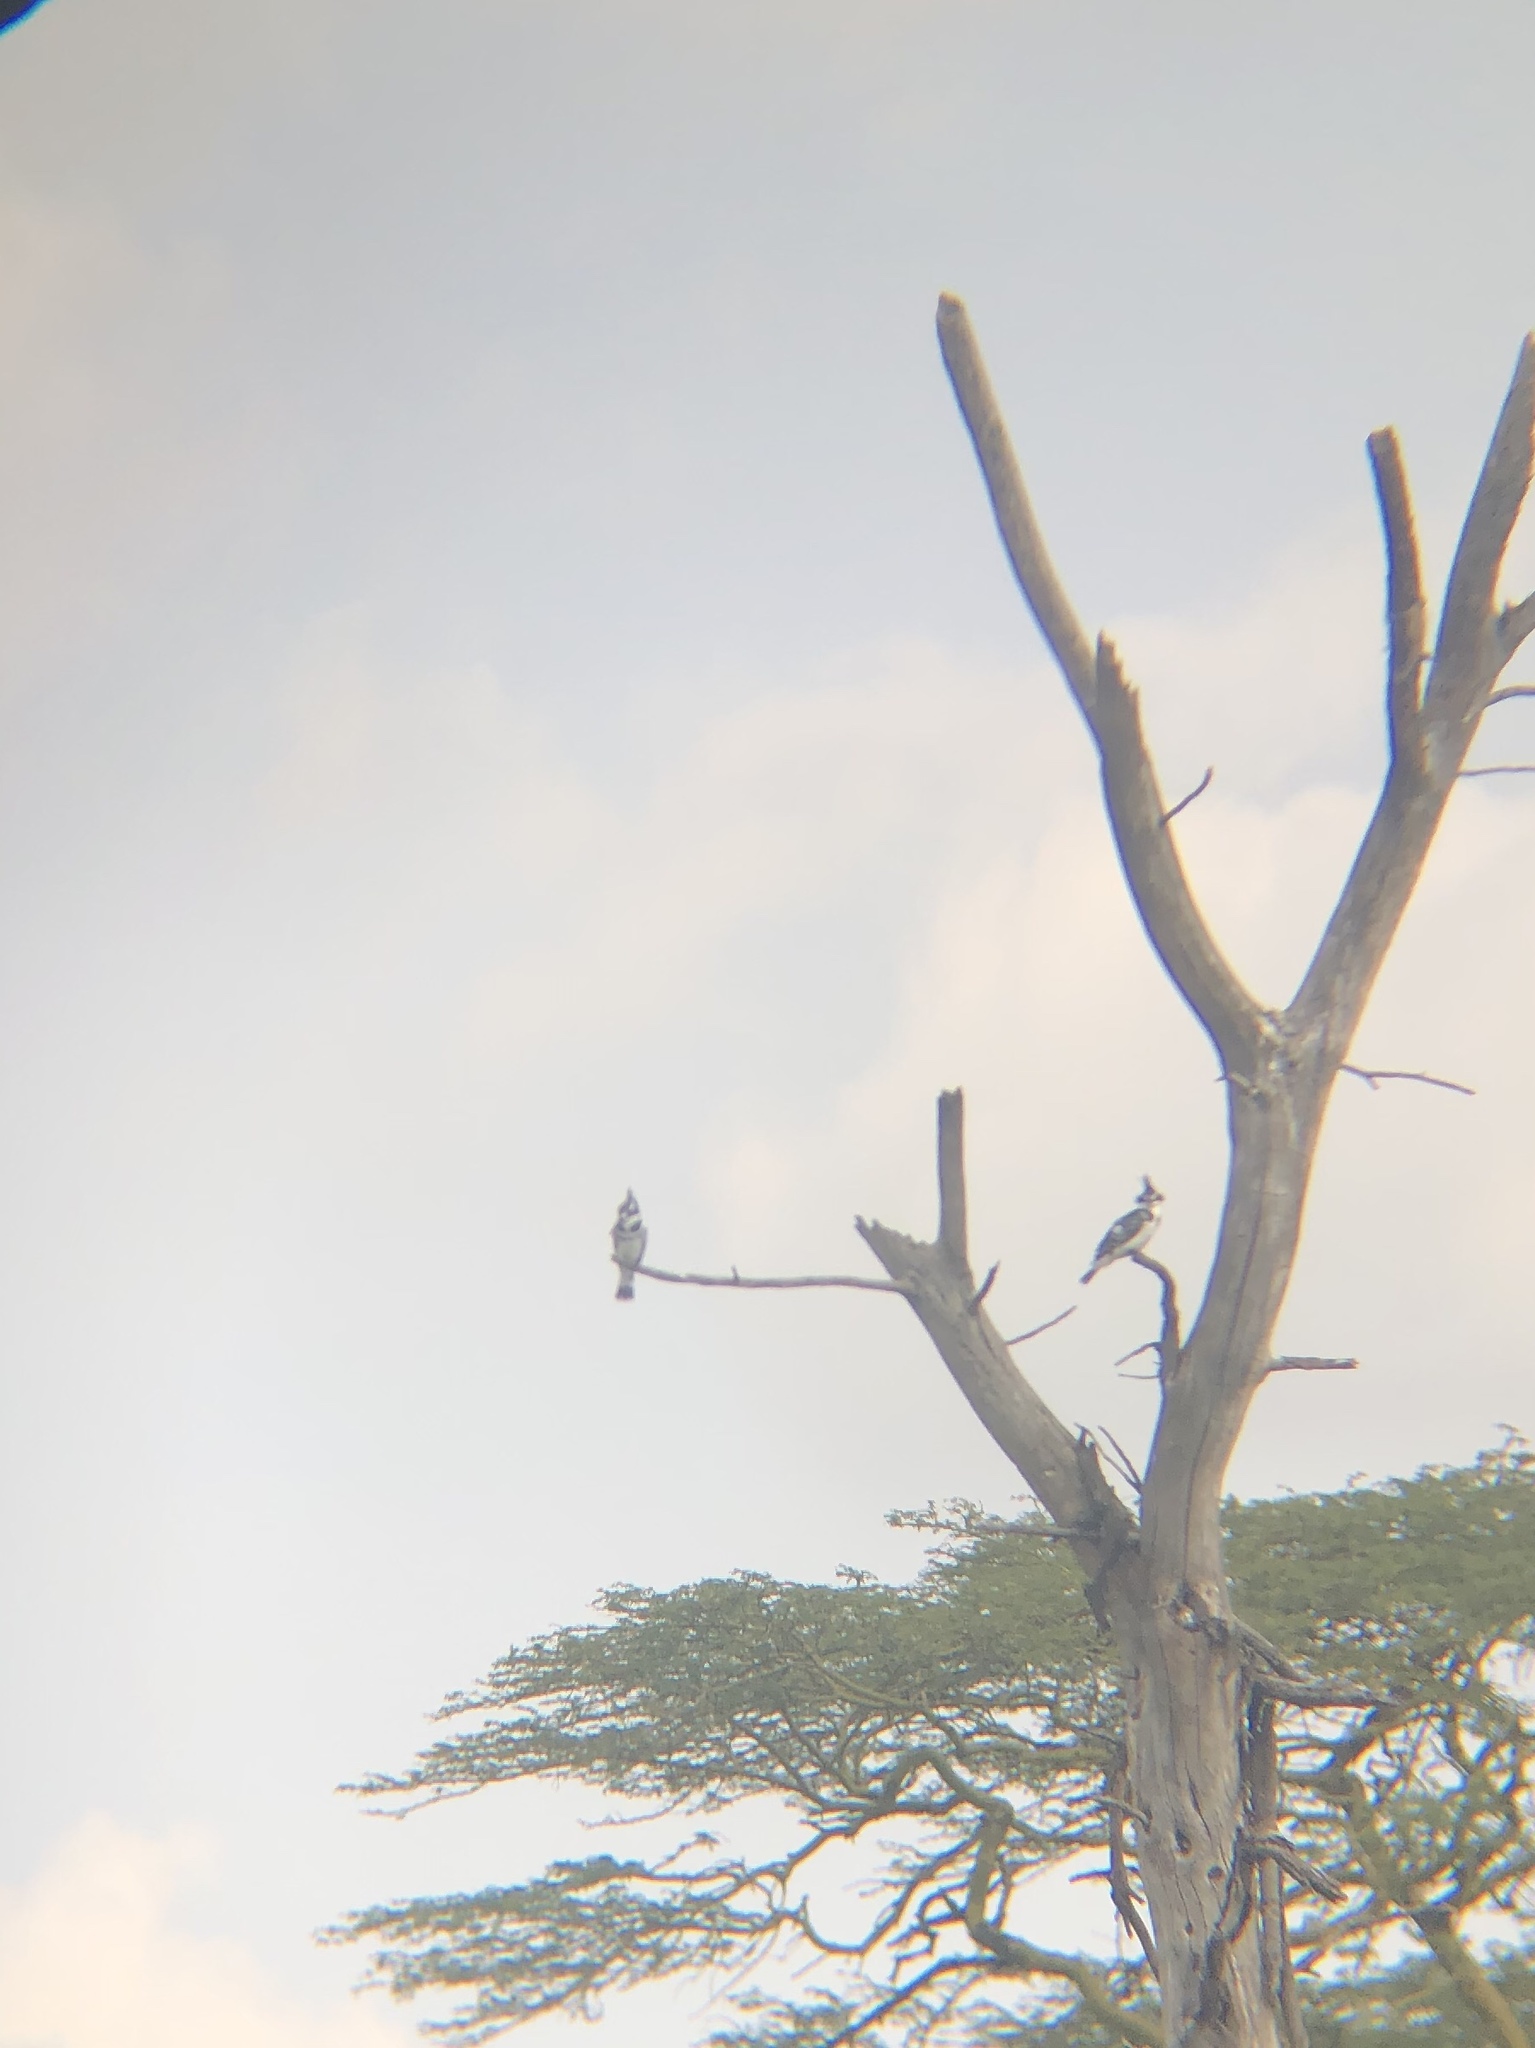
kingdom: Animalia
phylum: Chordata
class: Aves
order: Coraciiformes
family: Alcedinidae
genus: Ceryle
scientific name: Ceryle rudis
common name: Pied kingfisher
